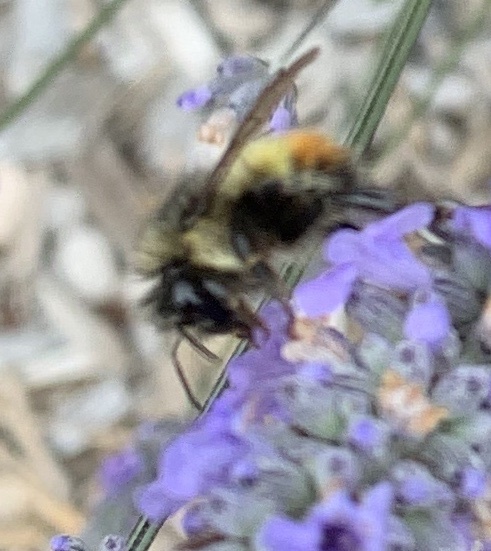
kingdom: Animalia
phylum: Arthropoda
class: Insecta
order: Hymenoptera
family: Apidae
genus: Bombus
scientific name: Bombus flavifrons
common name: Yellow head bumble bee
